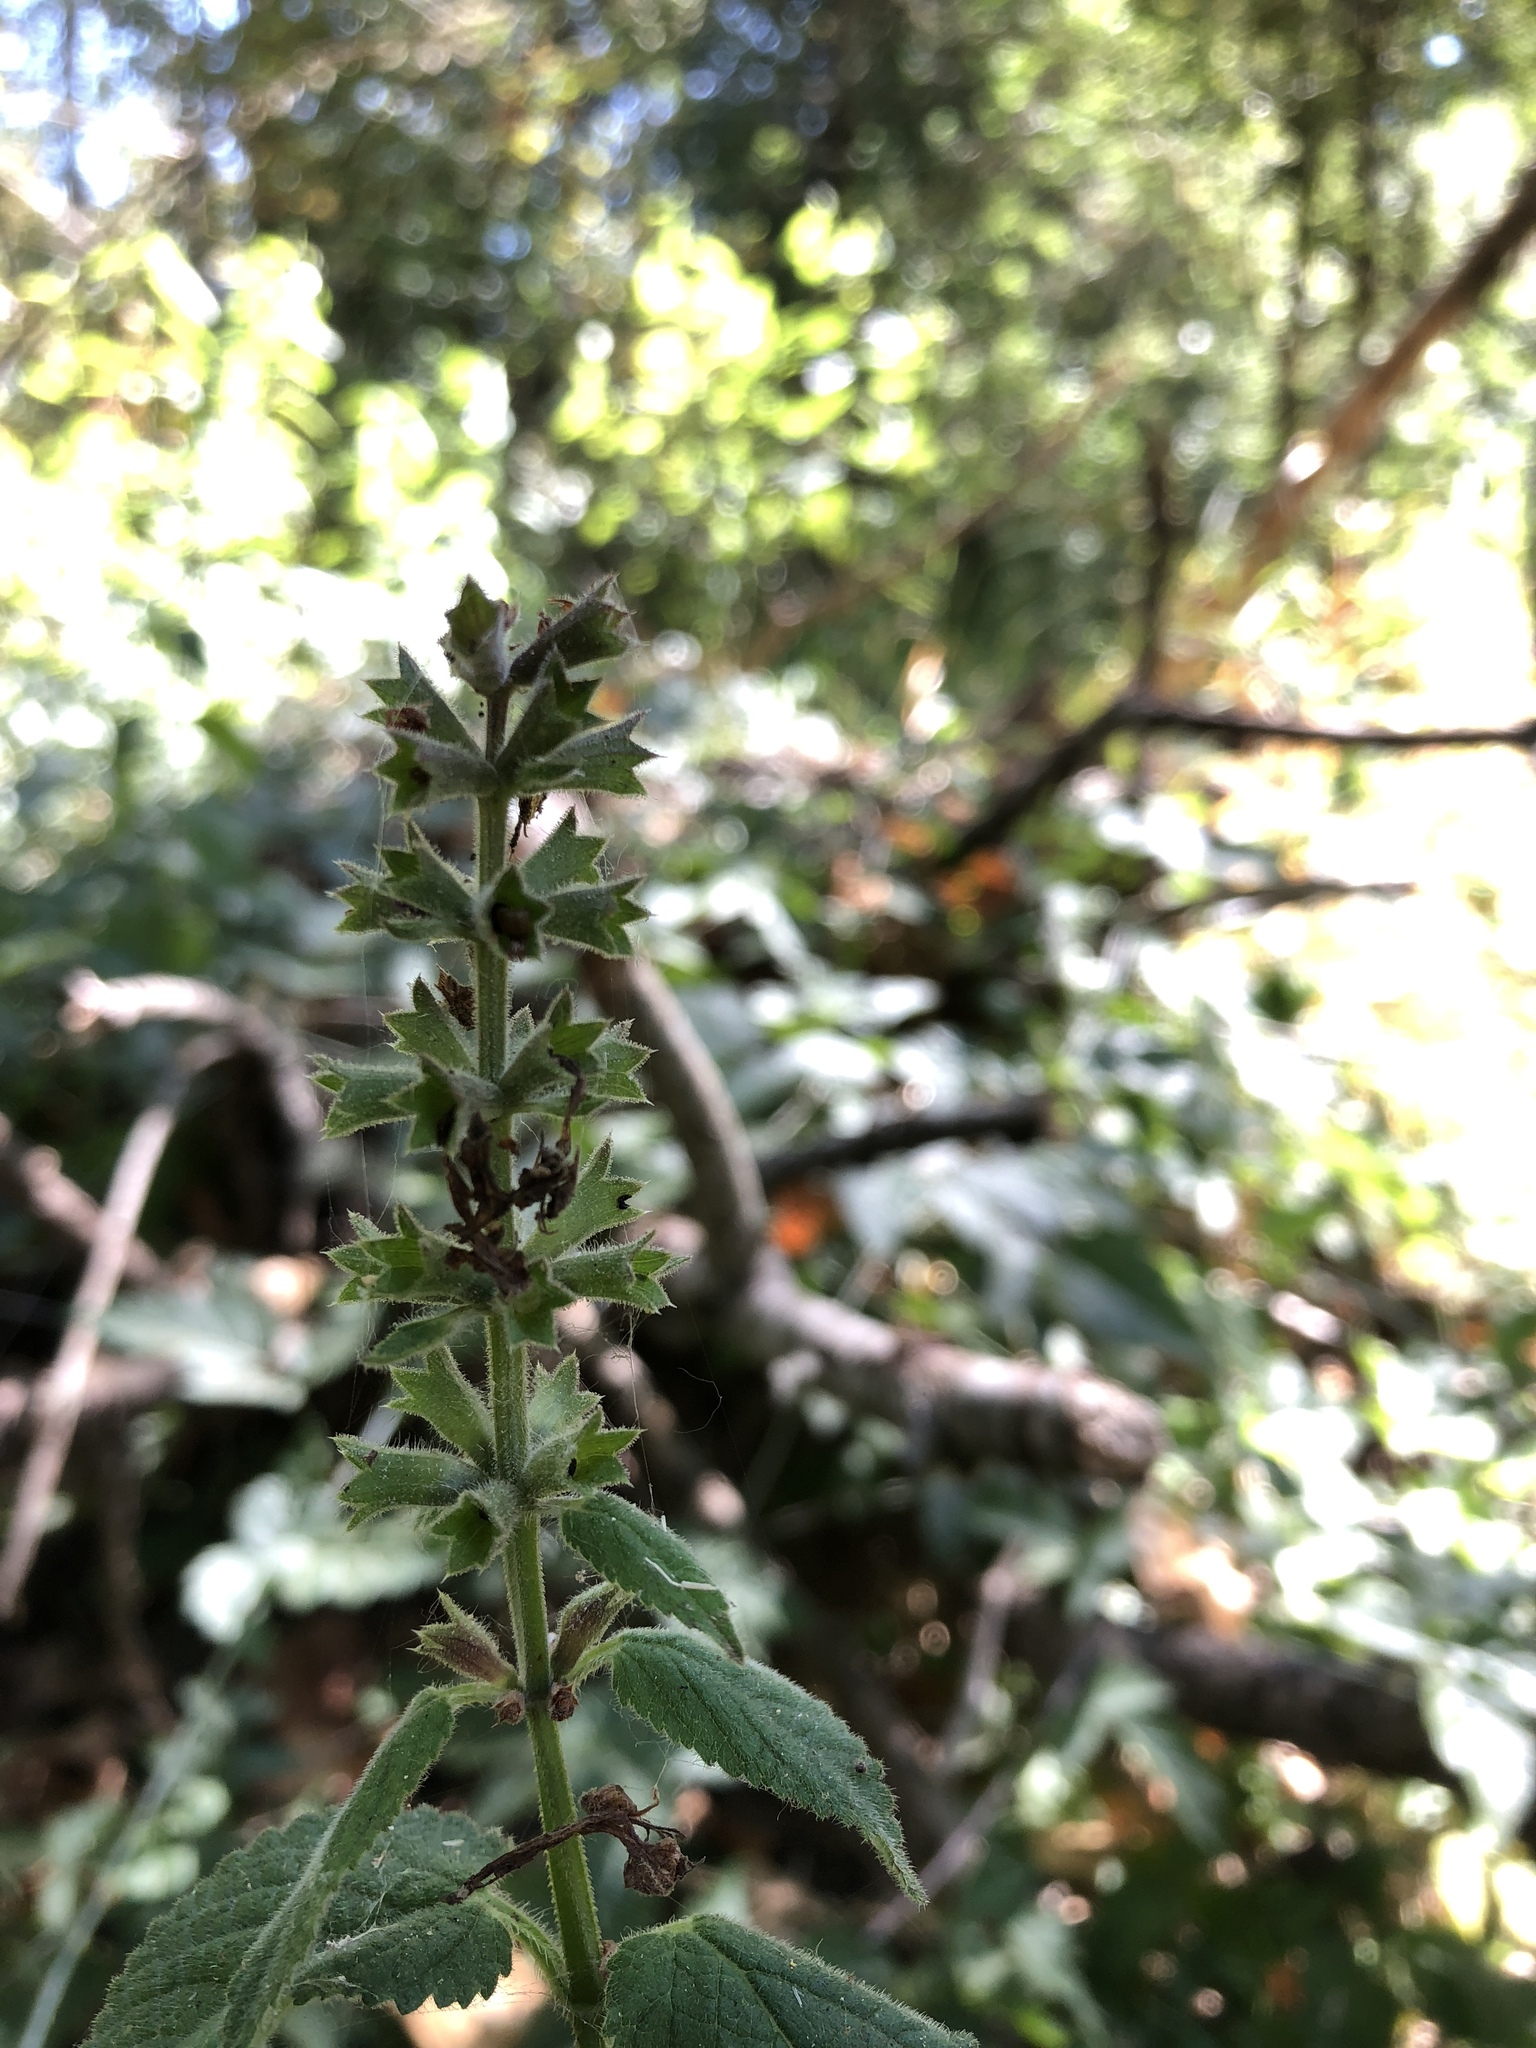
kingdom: Plantae
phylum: Tracheophyta
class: Magnoliopsida
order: Lamiales
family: Lamiaceae
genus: Stachys
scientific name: Stachys chamissonis
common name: Coastal hedge-nettle
